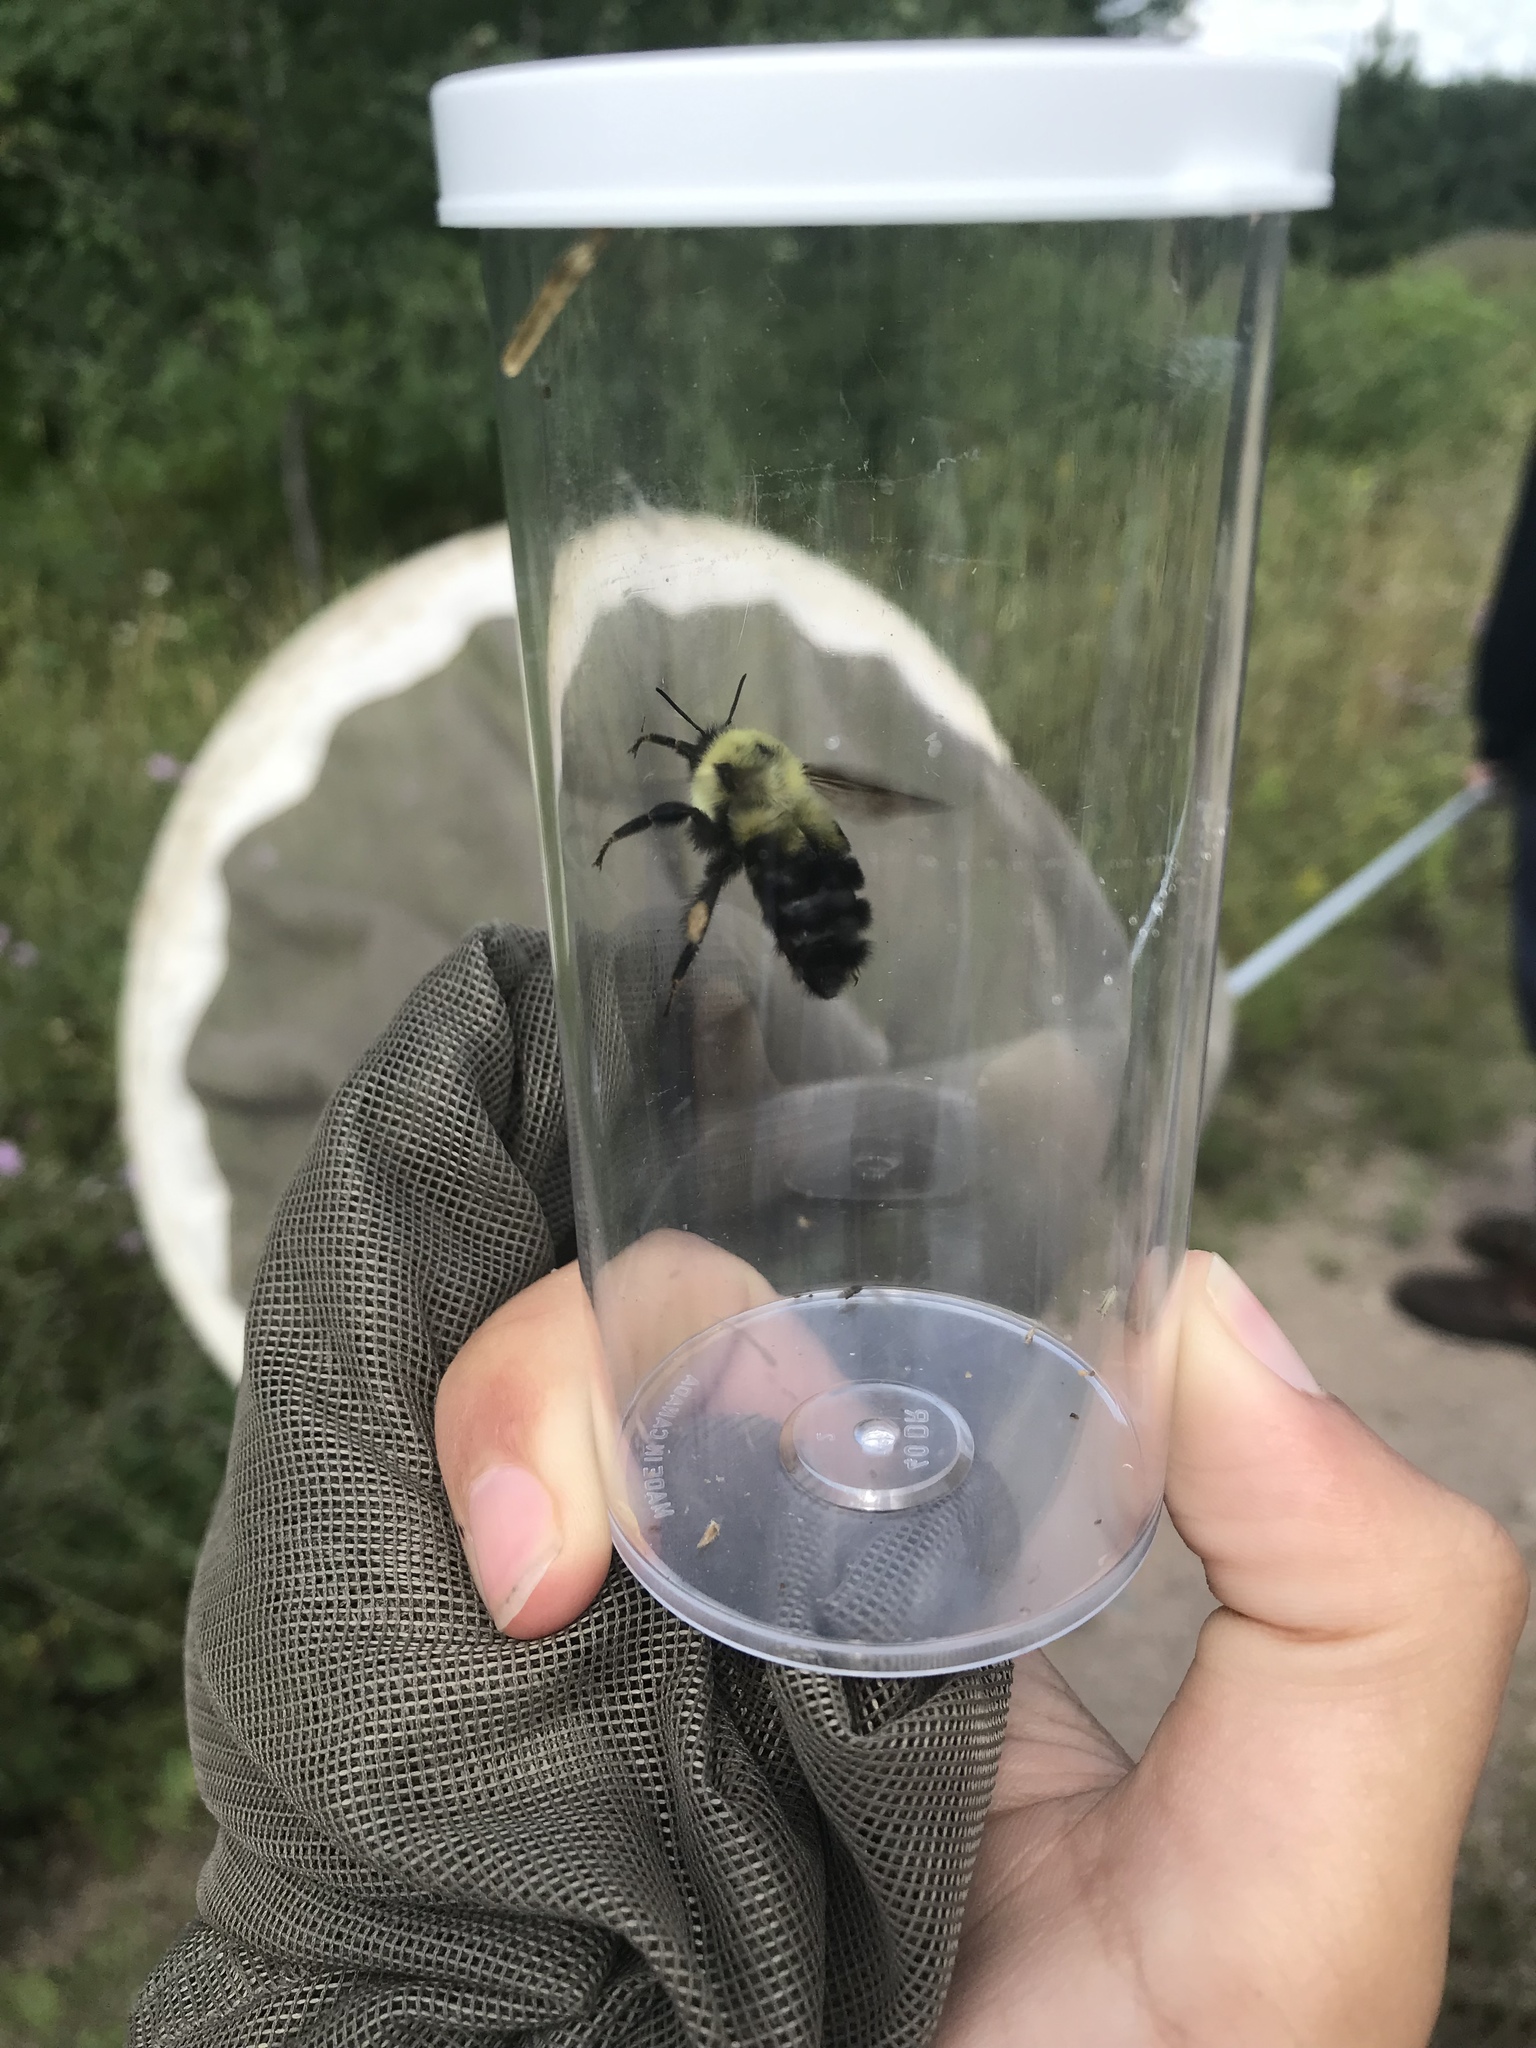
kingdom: Animalia
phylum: Arthropoda
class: Insecta
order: Hymenoptera
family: Apidae
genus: Bombus
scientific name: Bombus bimaculatus
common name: Two-spotted bumble bee
